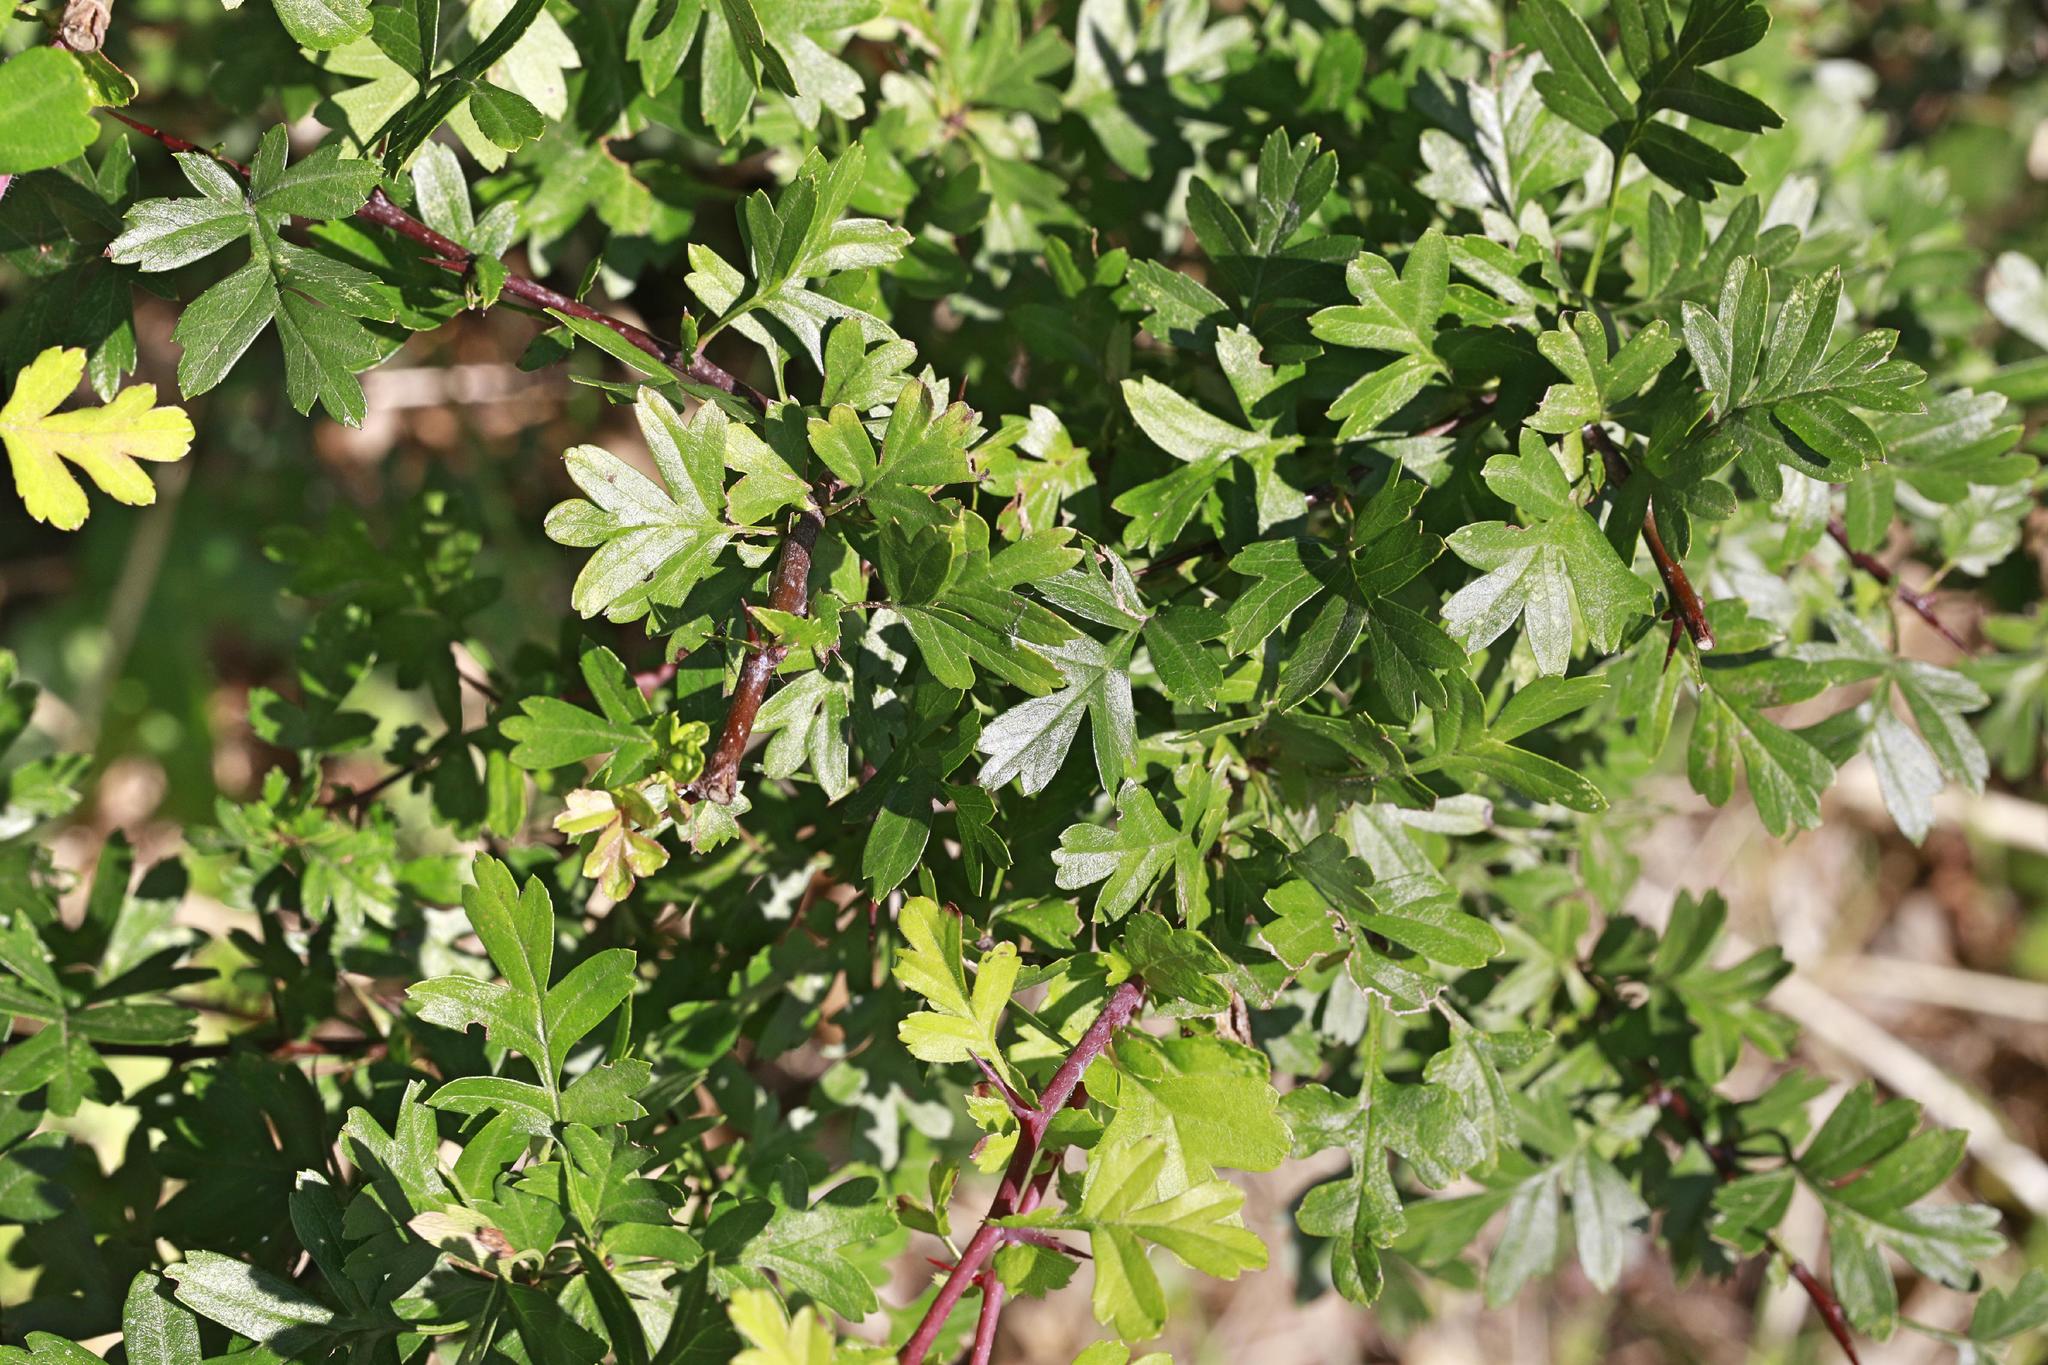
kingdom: Plantae
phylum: Tracheophyta
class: Magnoliopsida
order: Rosales
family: Rosaceae
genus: Crataegus
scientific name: Crataegus monogyna
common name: Hawthorn
